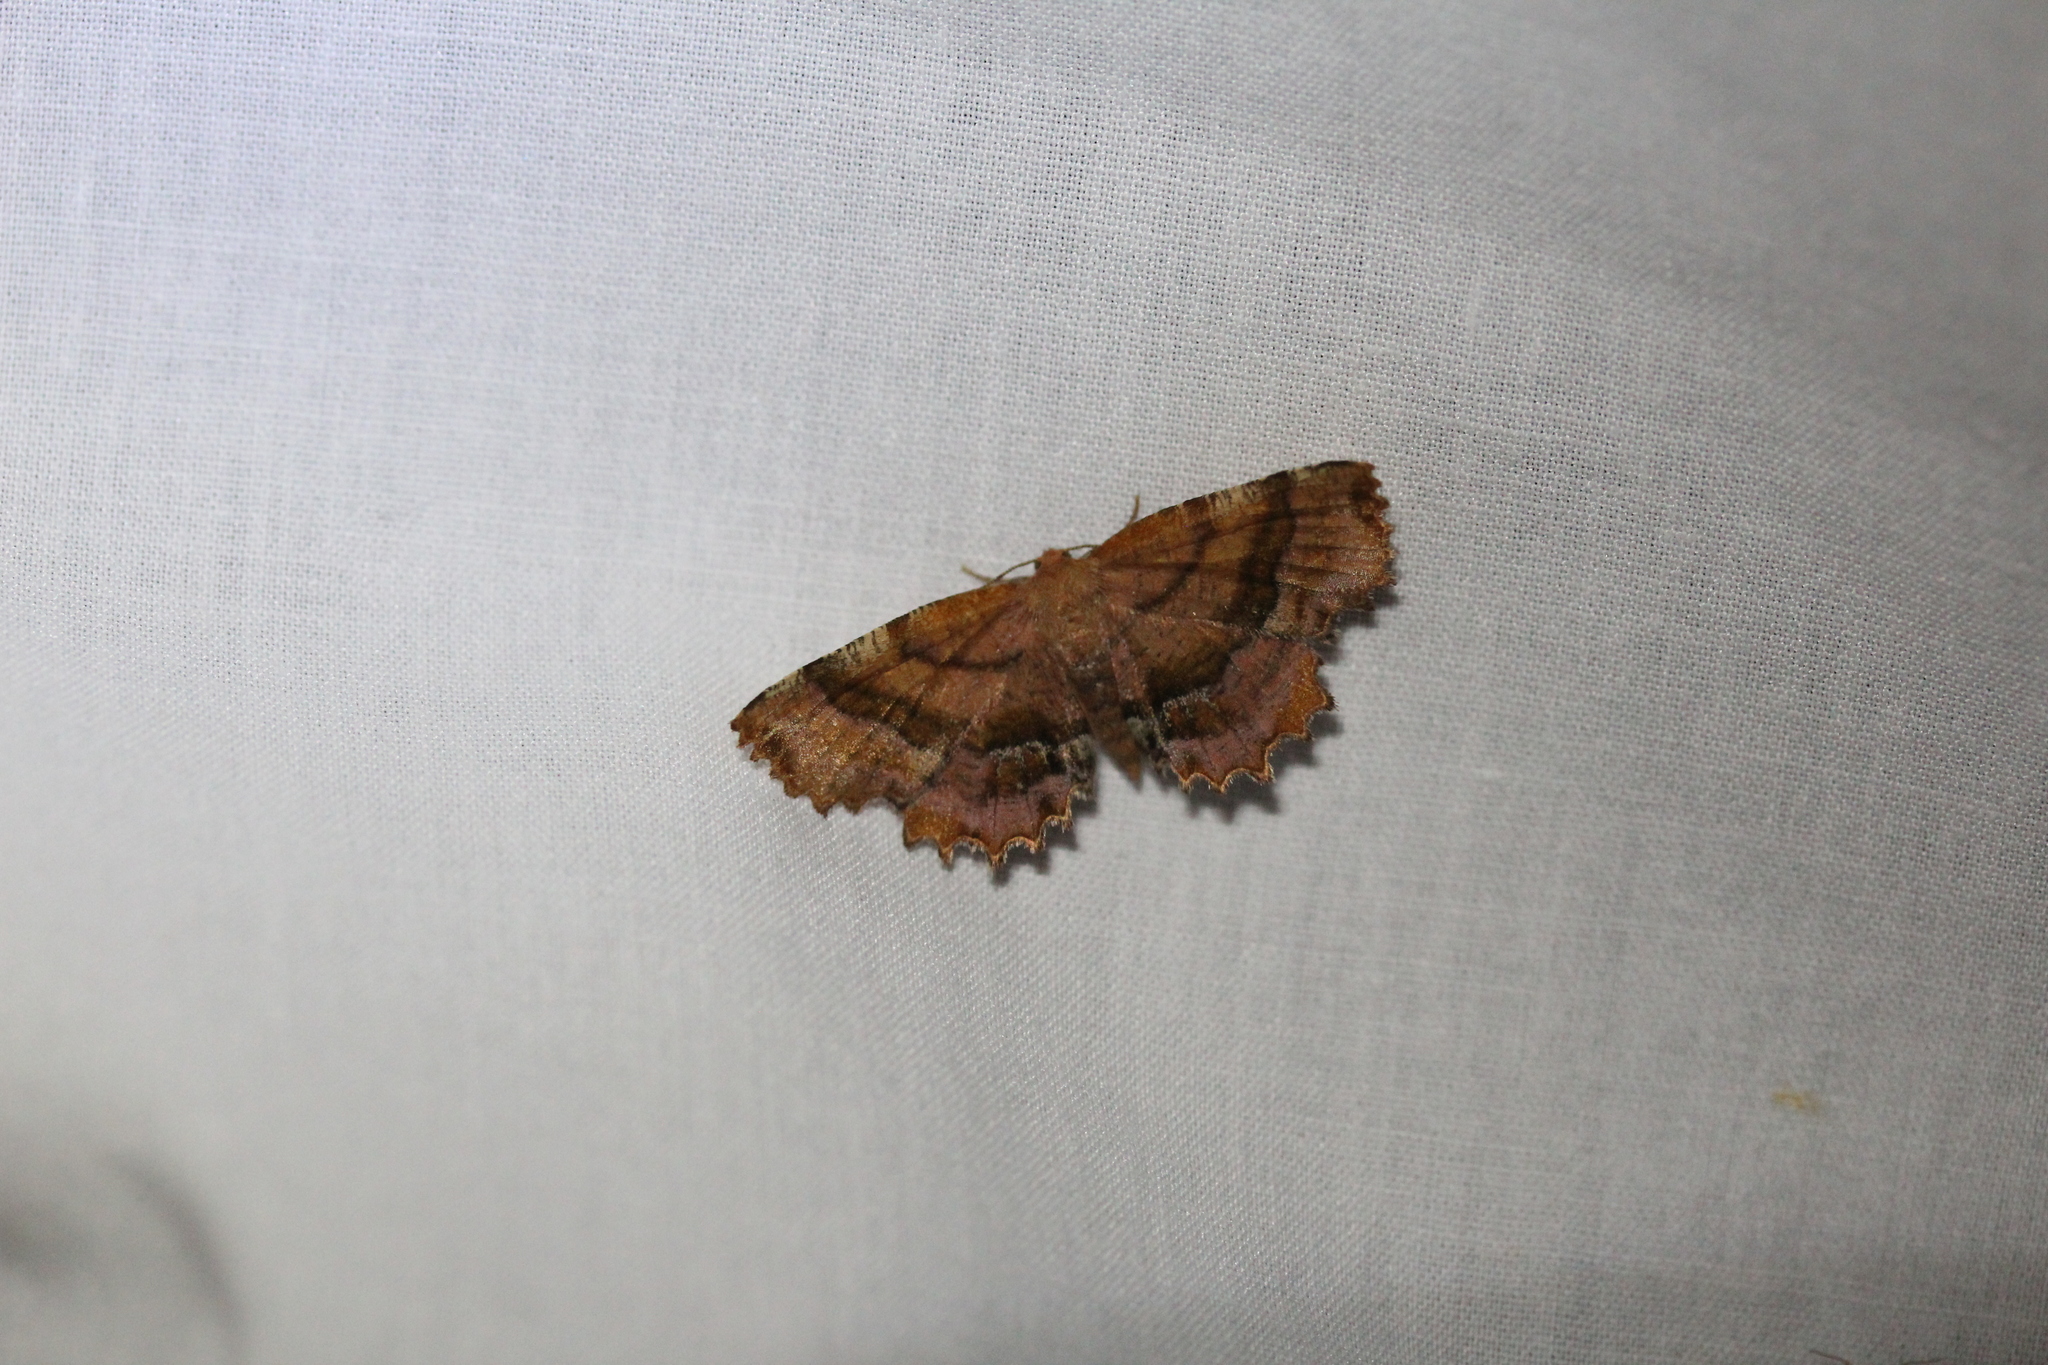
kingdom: Animalia
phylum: Arthropoda
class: Insecta
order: Lepidoptera
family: Geometridae
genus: Cepphis
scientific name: Cepphis armataria
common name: Scallop moth
